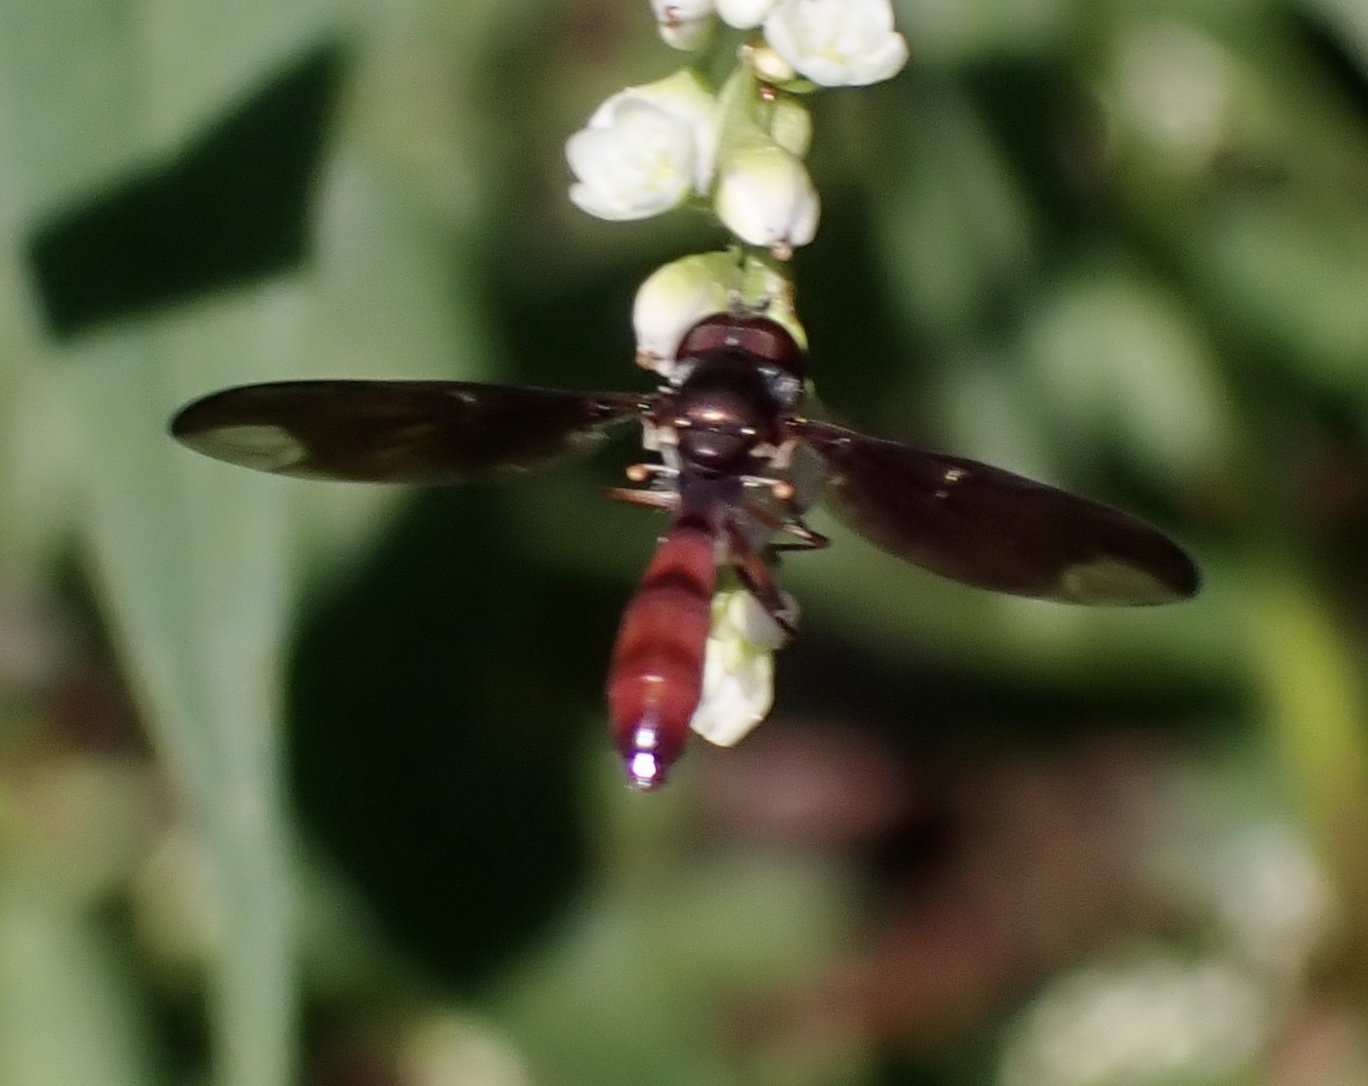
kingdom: Animalia
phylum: Arthropoda
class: Insecta
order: Diptera
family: Syrphidae
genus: Ocyptamus
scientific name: Ocyptamus fuscipennis
